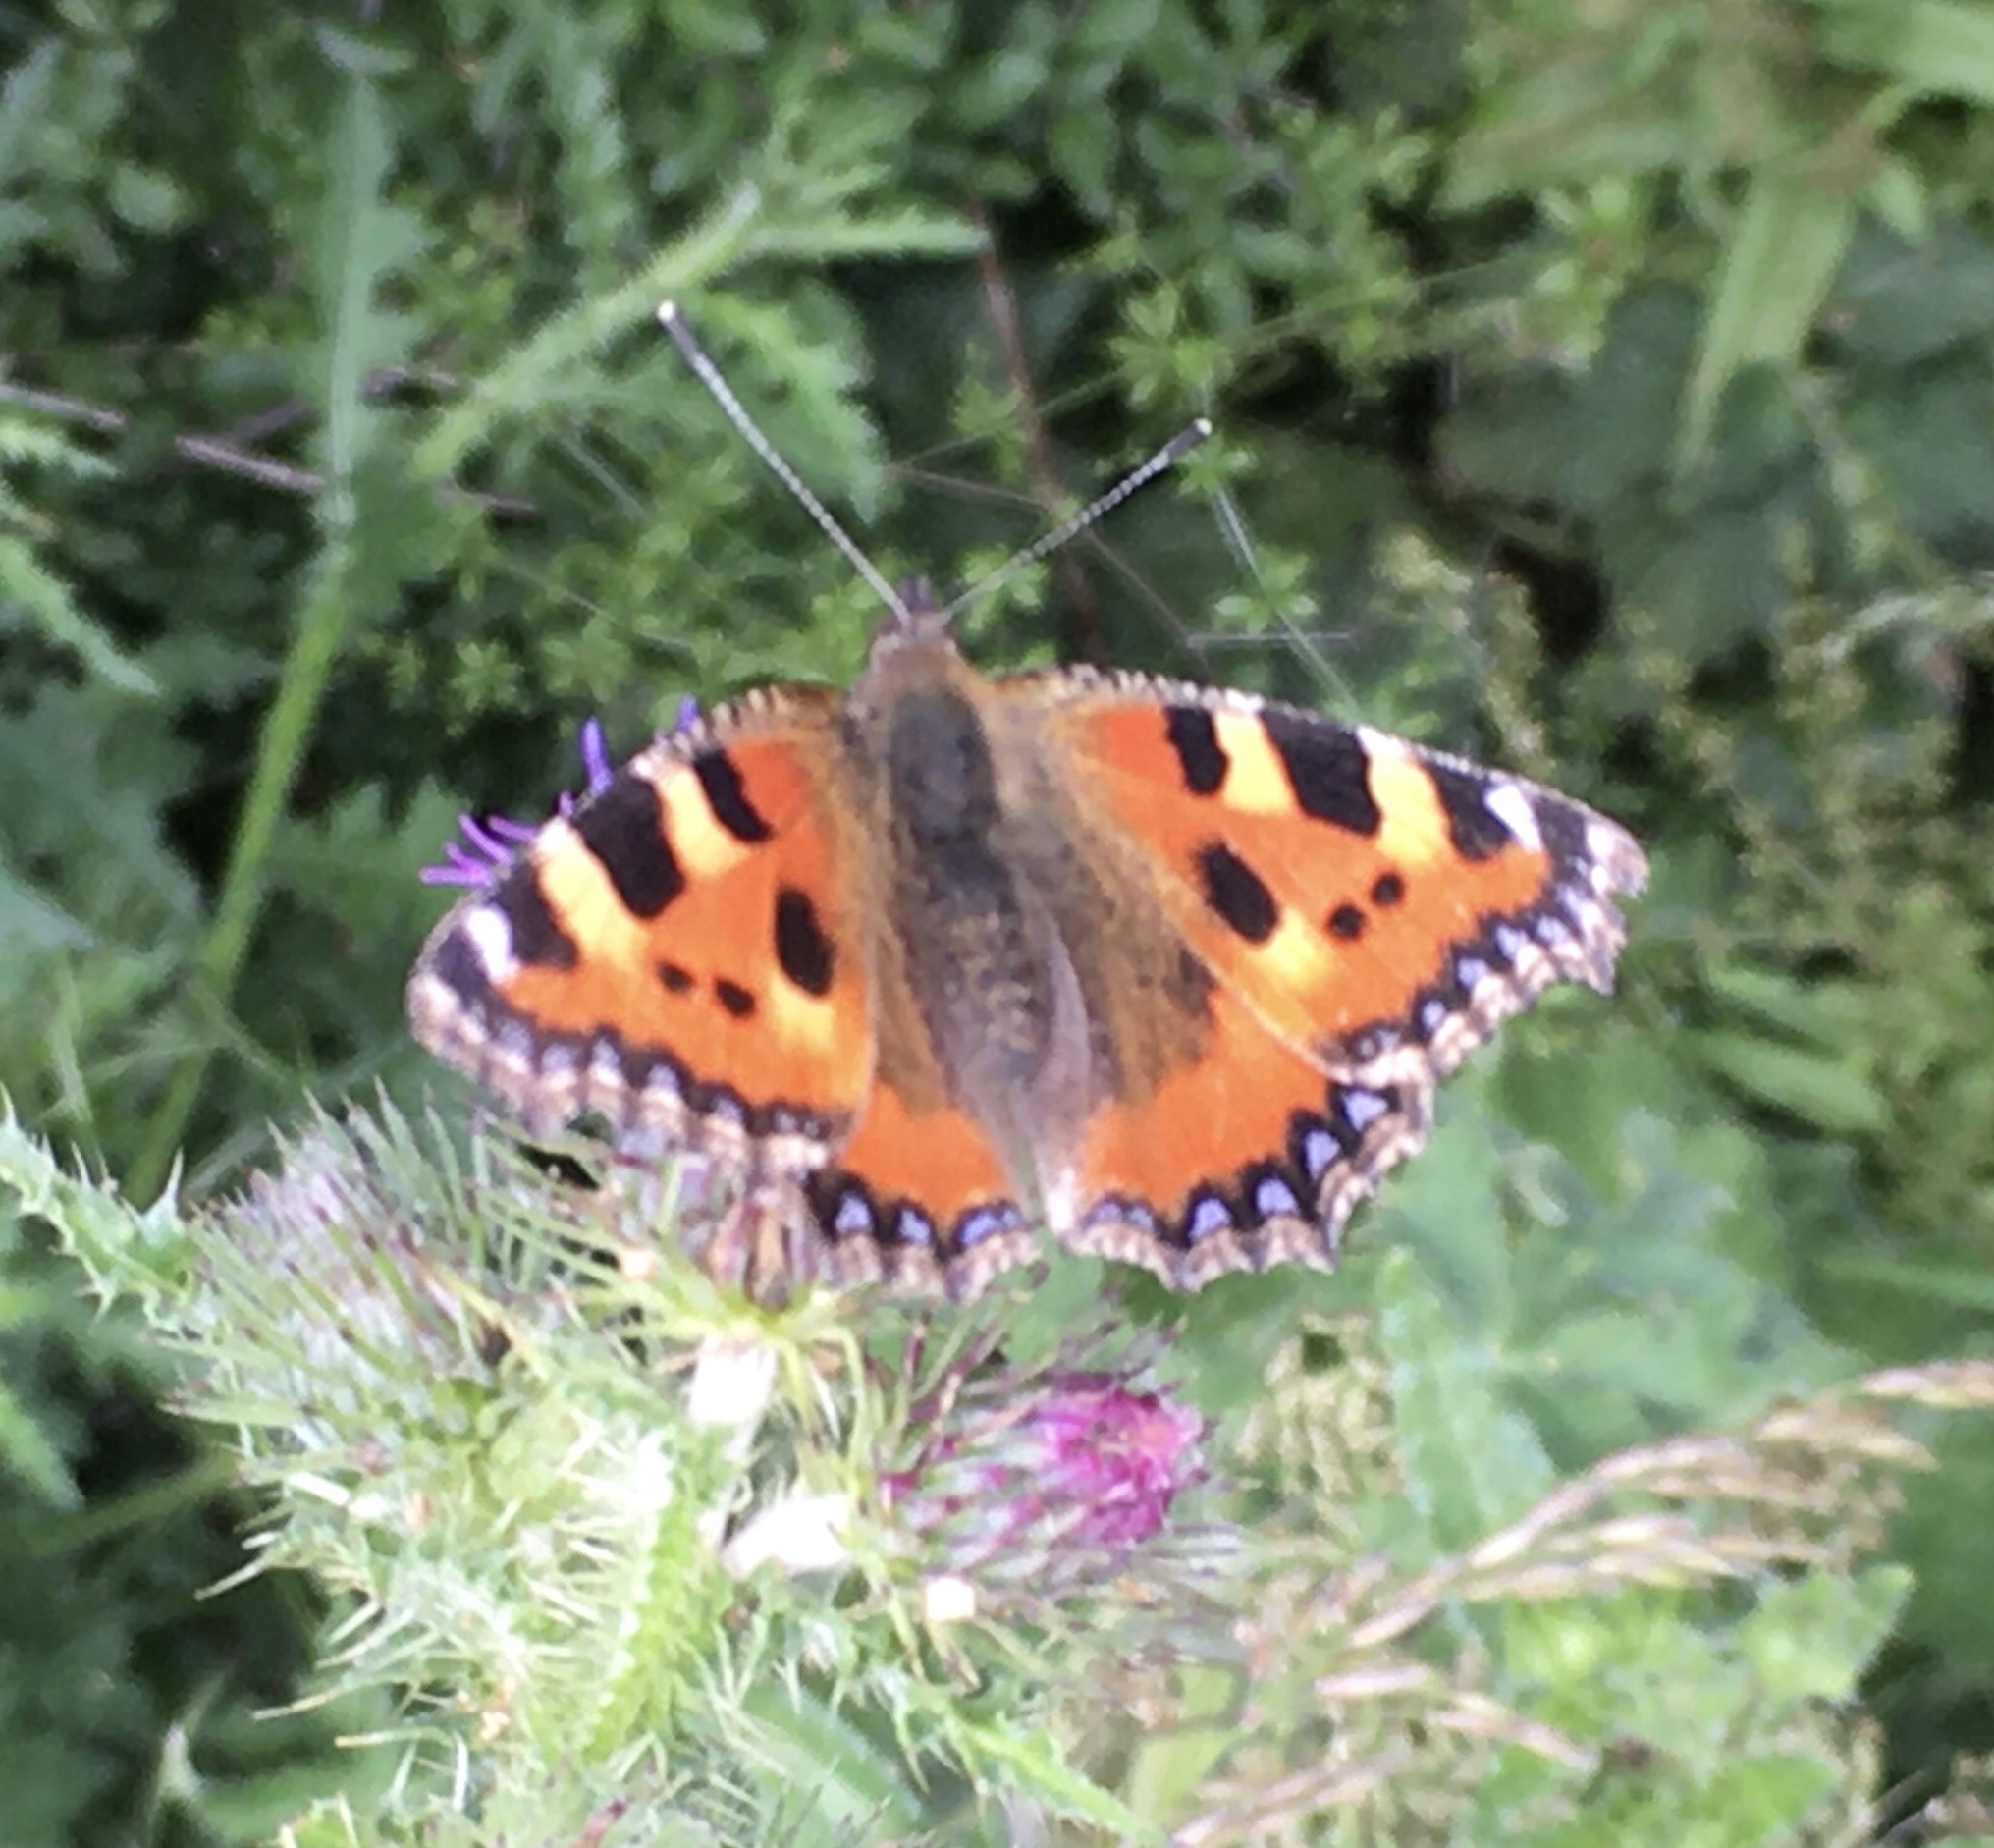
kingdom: Animalia
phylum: Arthropoda
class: Insecta
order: Lepidoptera
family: Nymphalidae
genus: Aglais
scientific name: Aglais urticae
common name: Small tortoiseshell
